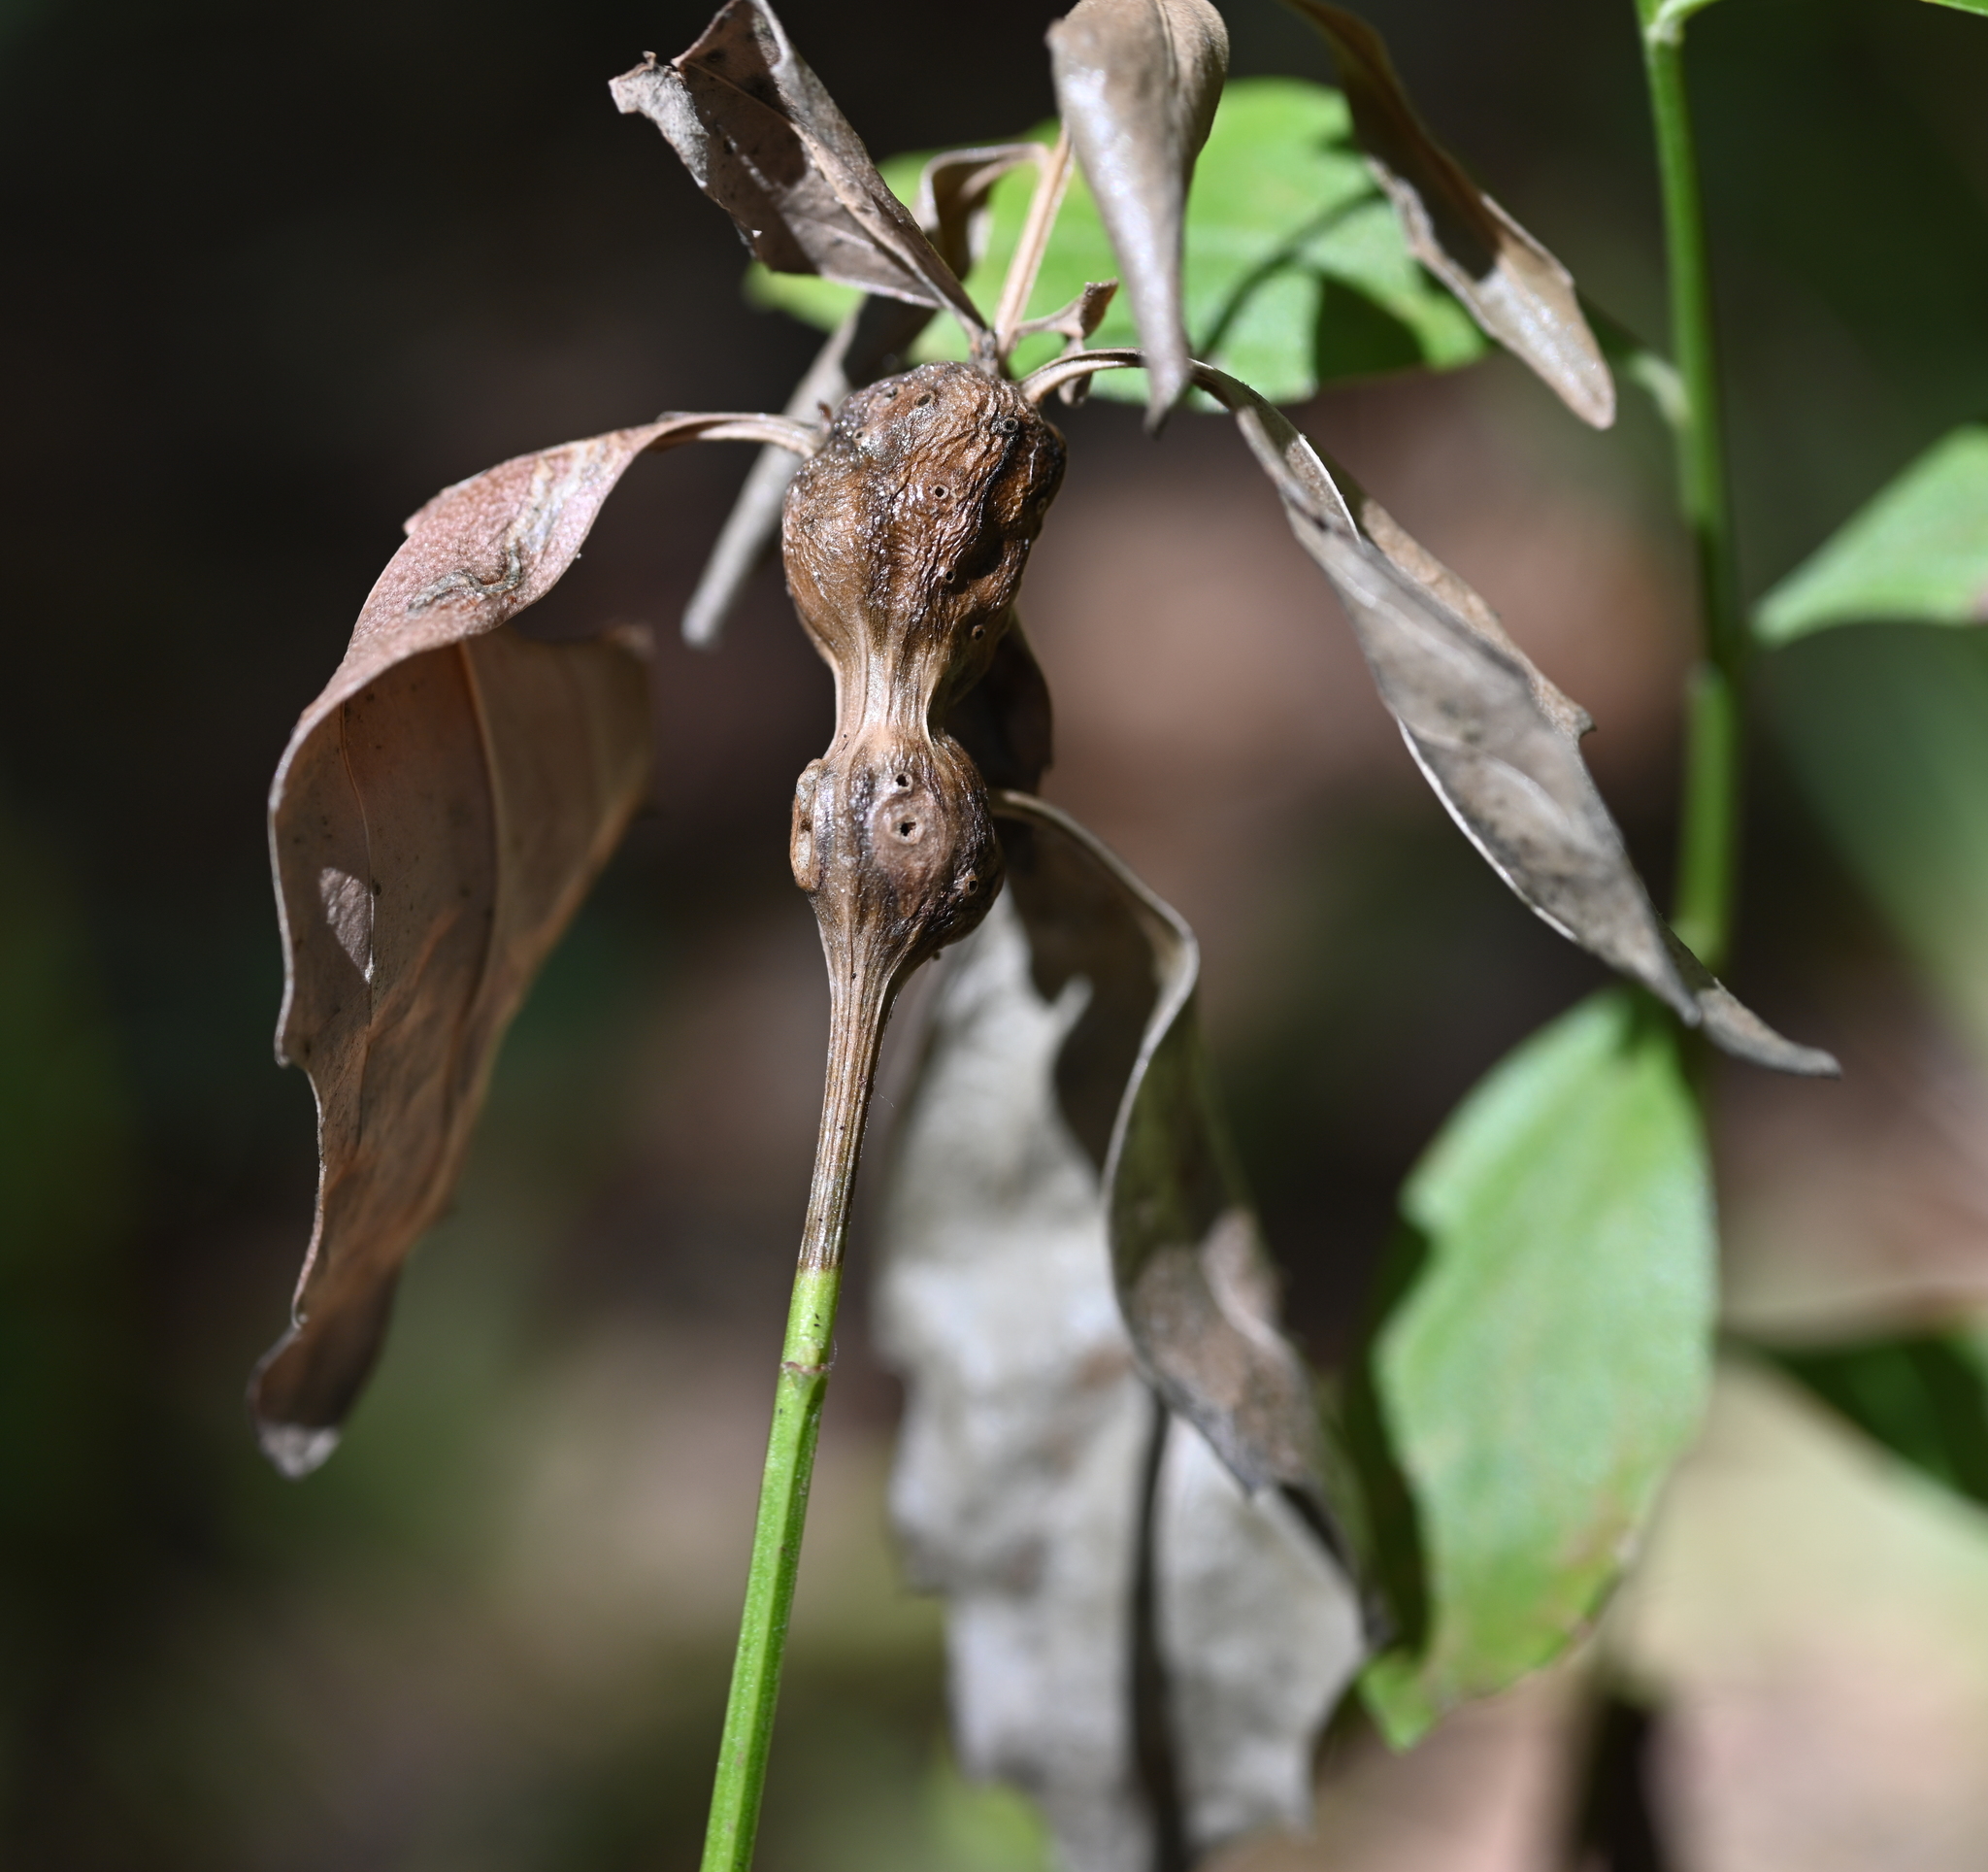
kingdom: Animalia
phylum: Arthropoda
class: Insecta
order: Diptera
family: Cecidomyiidae
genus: Neolasioptera
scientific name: Neolasioptera lathami
